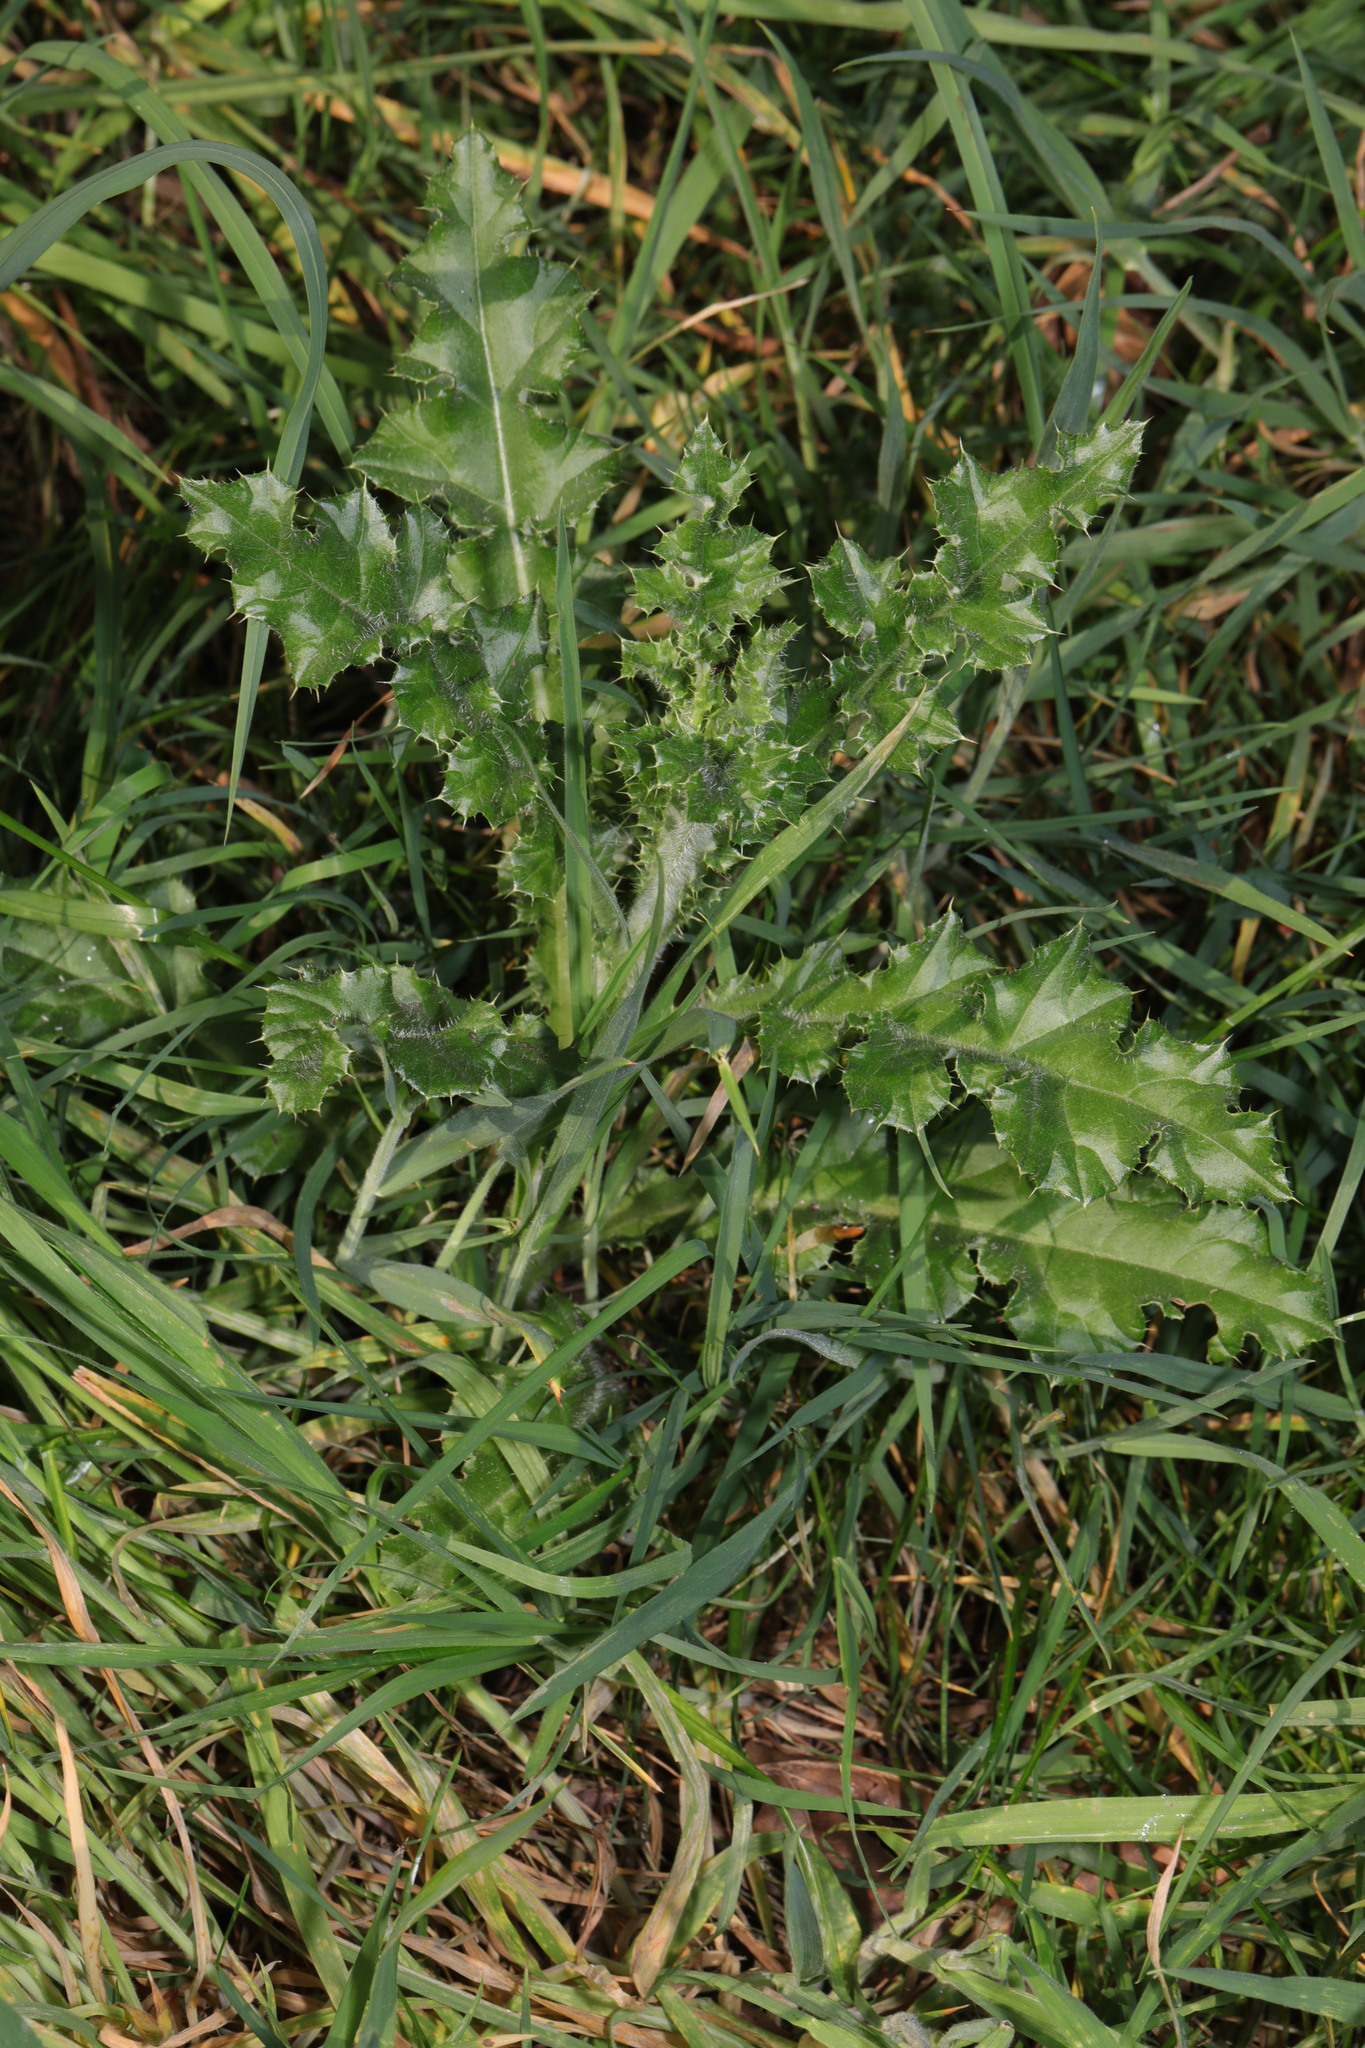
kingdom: Plantae
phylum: Tracheophyta
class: Magnoliopsida
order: Asterales
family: Asteraceae
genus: Cirsium
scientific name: Cirsium arvense
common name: Creeping thistle
